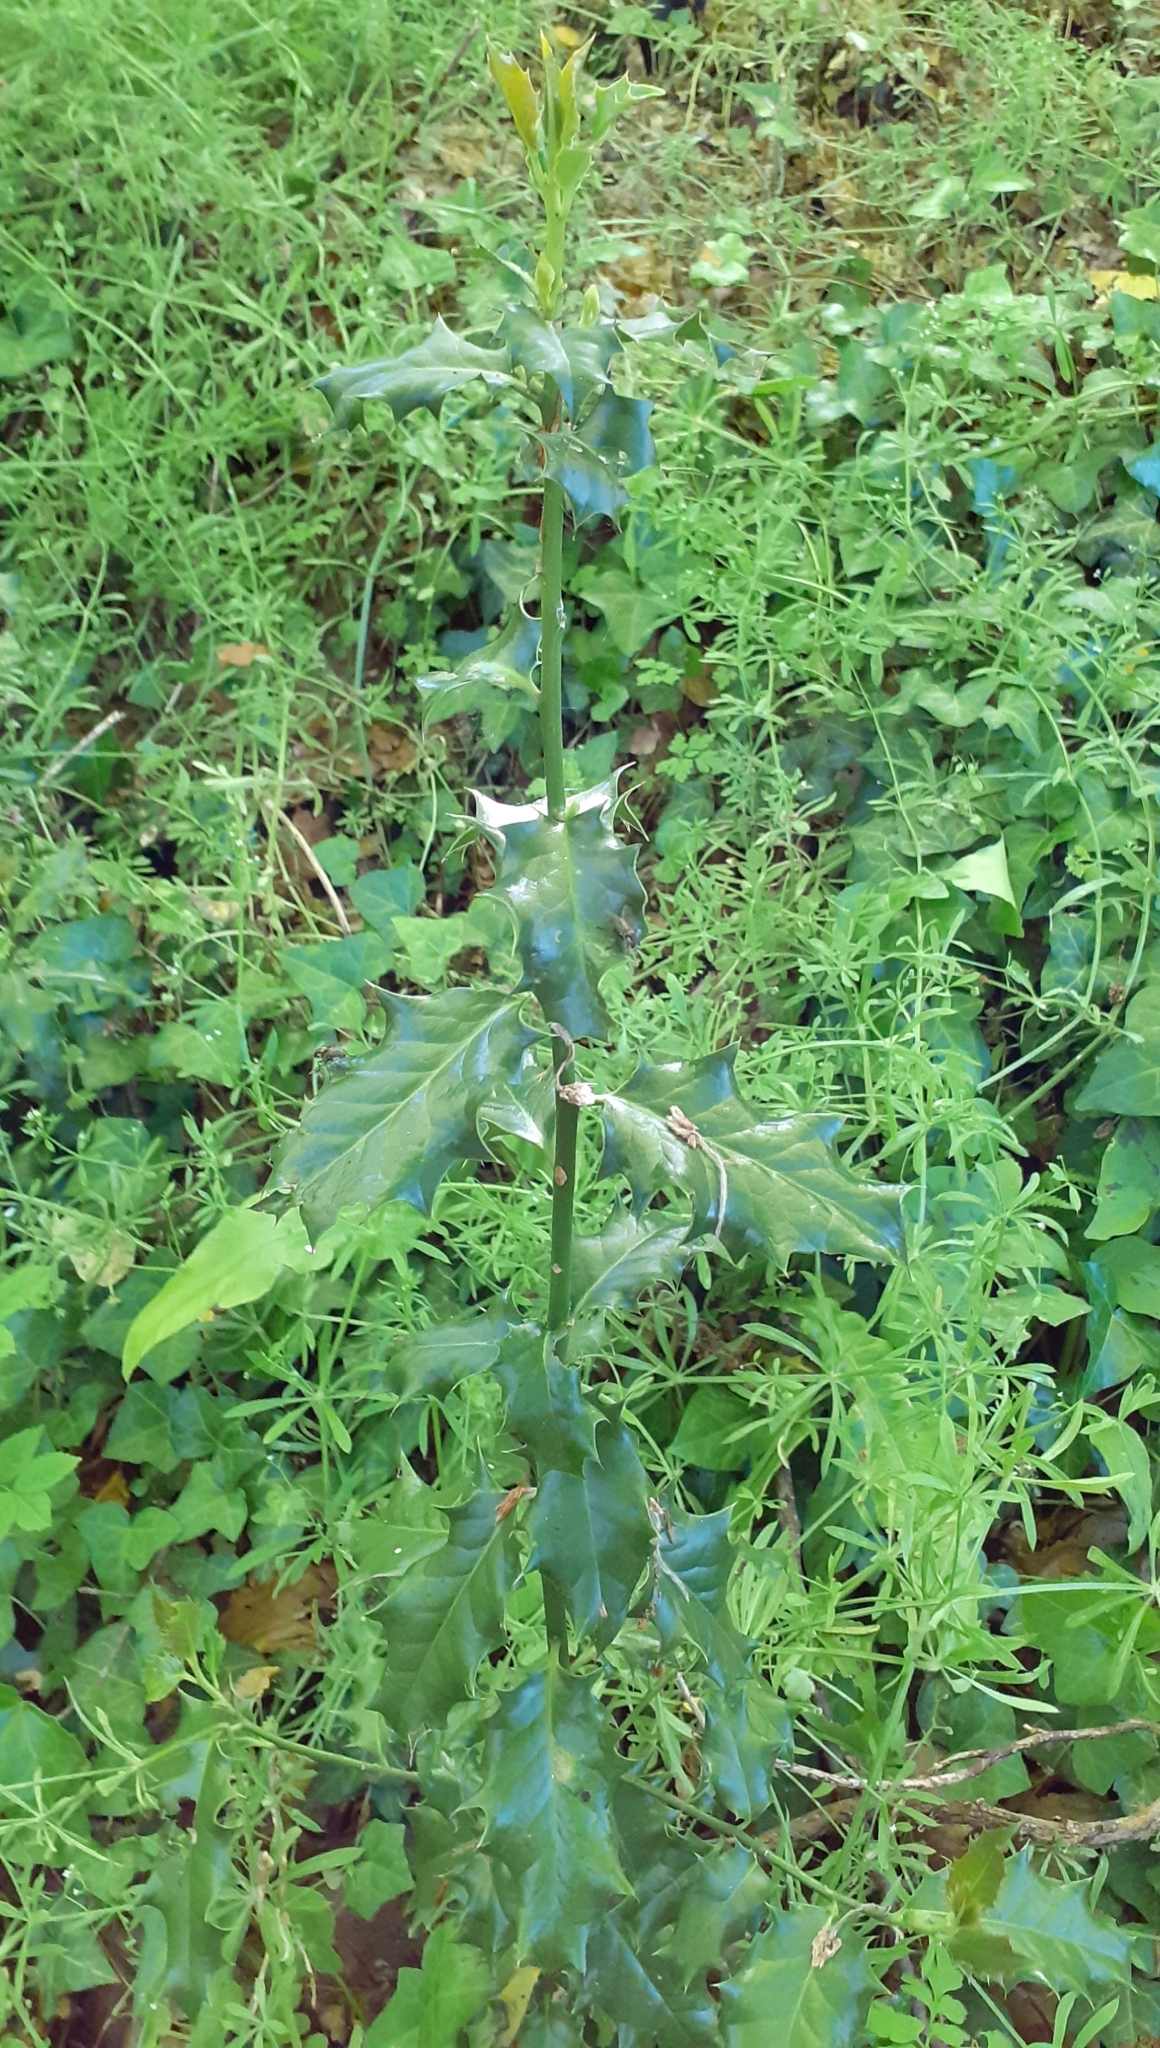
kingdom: Plantae
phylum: Tracheophyta
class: Magnoliopsida
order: Aquifoliales
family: Aquifoliaceae
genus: Ilex
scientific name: Ilex aquifolium
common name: English holly
